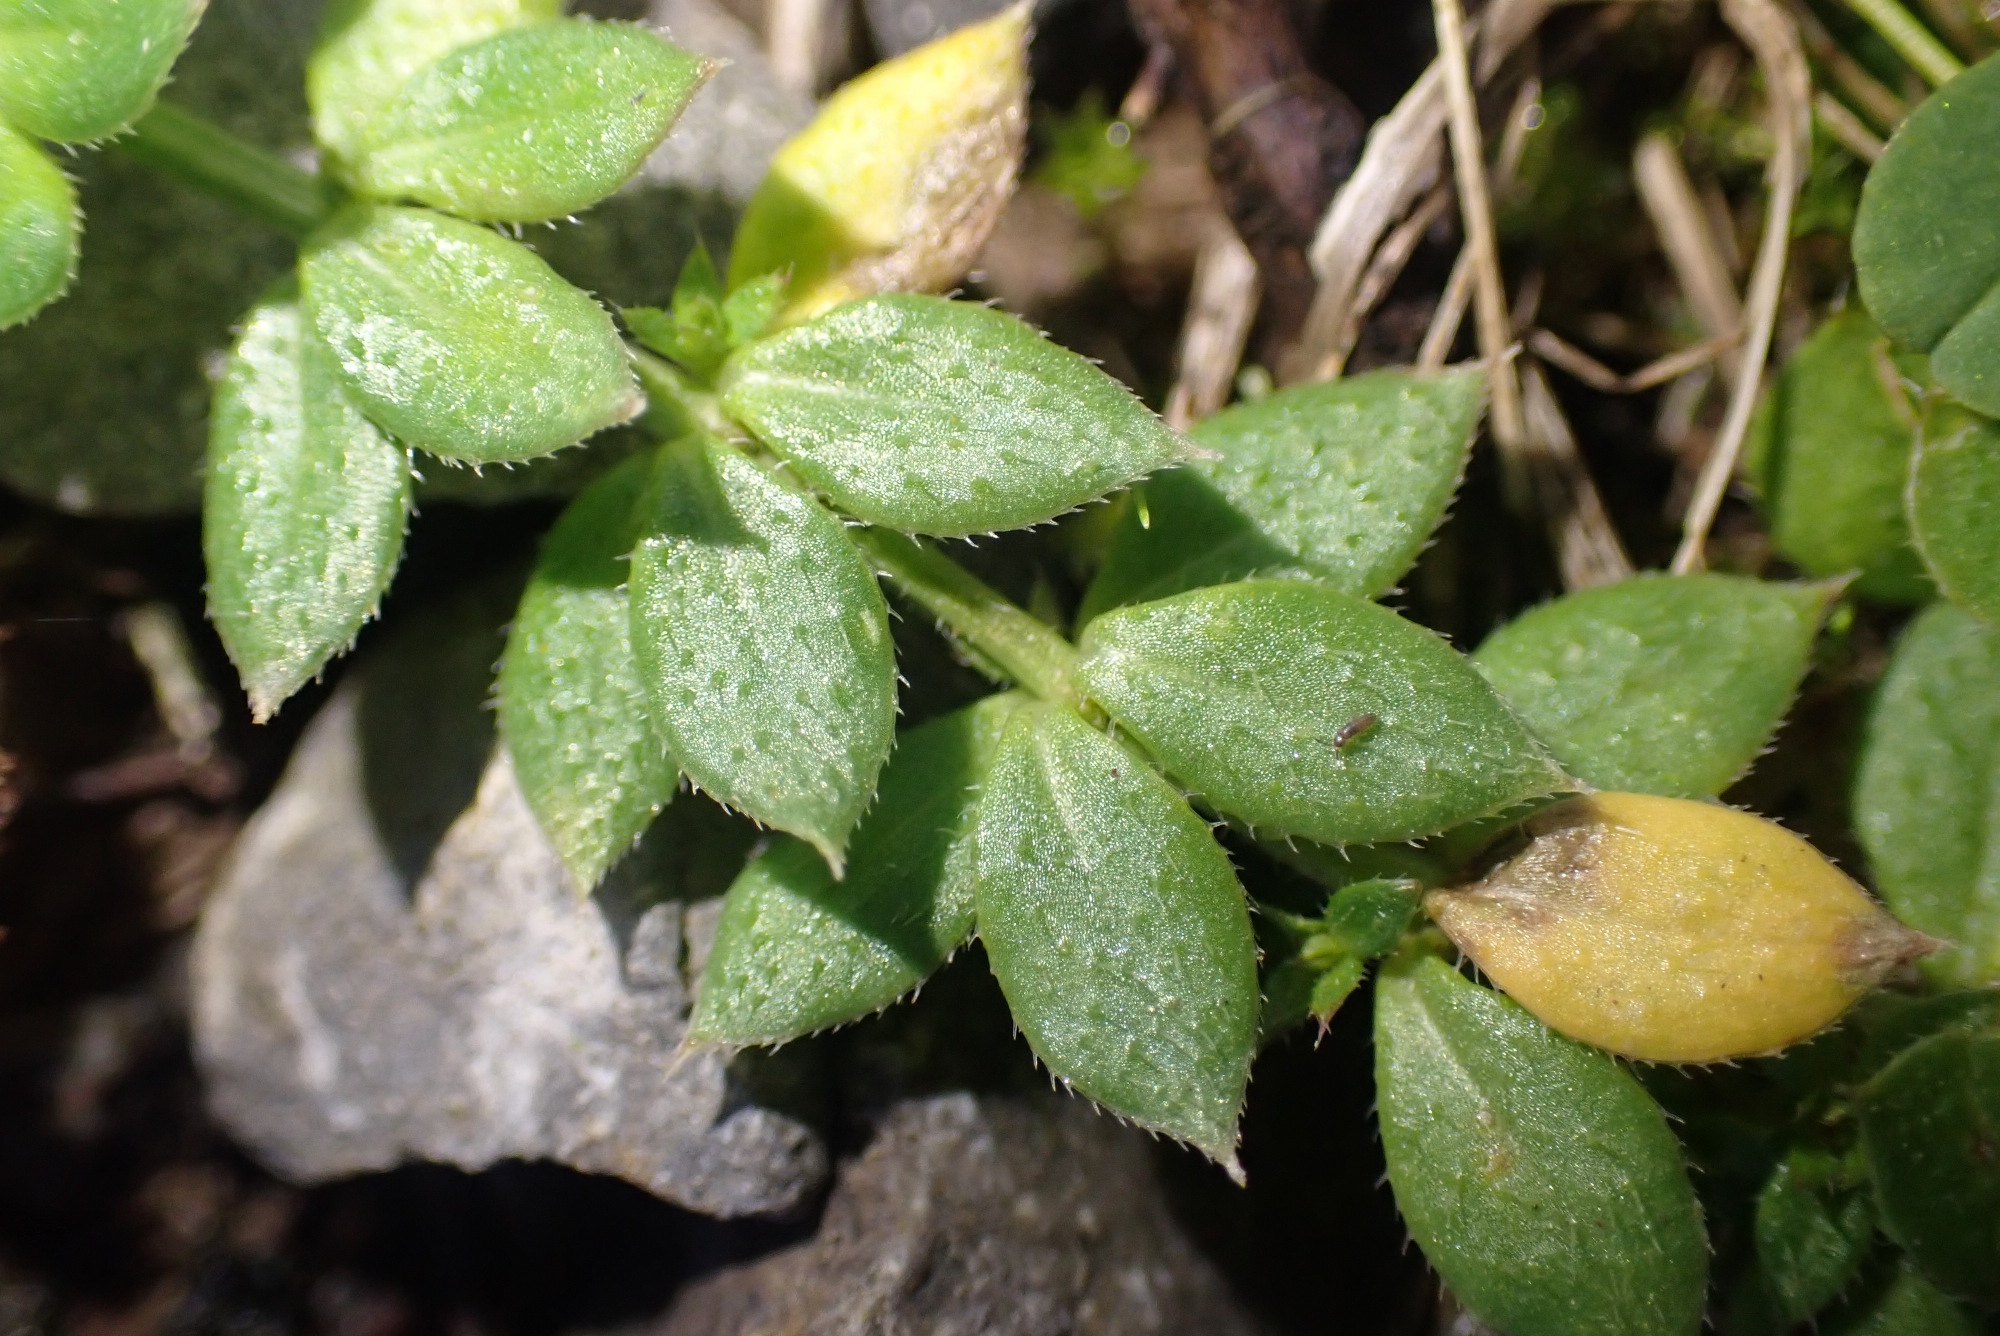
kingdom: Plantae
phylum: Tracheophyta
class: Magnoliopsida
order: Gentianales
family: Rubiaceae
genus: Sherardia
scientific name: Sherardia arvensis
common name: Field madder
